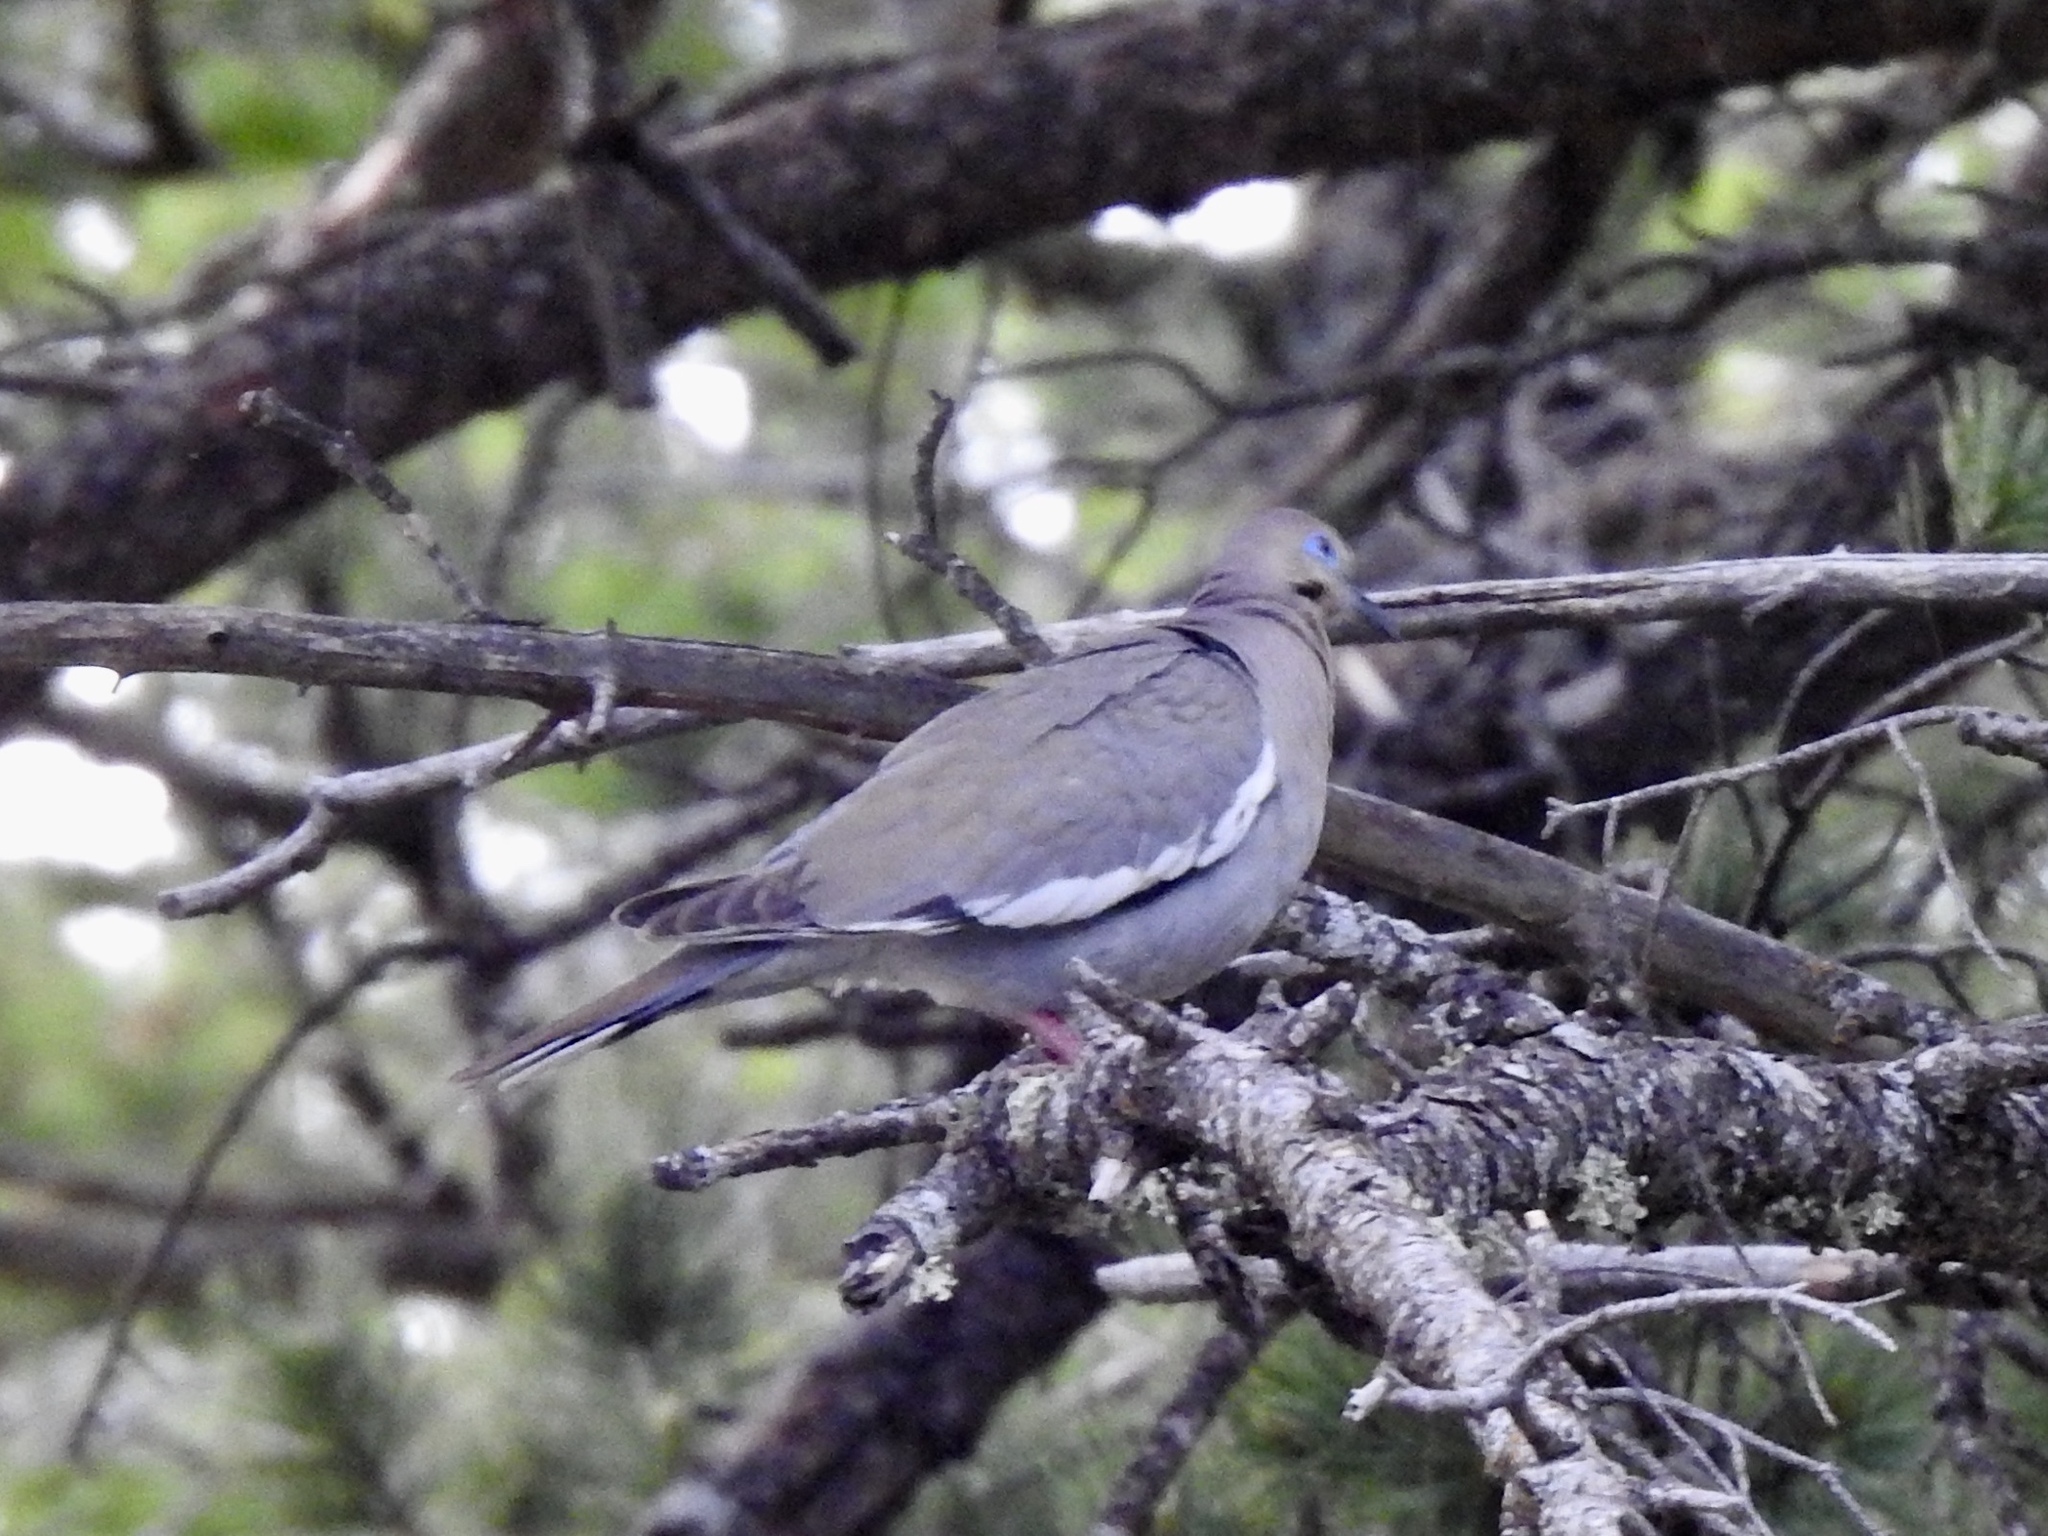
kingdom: Animalia
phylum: Chordata
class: Aves
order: Columbiformes
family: Columbidae
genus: Zenaida
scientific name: Zenaida asiatica
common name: White-winged dove
